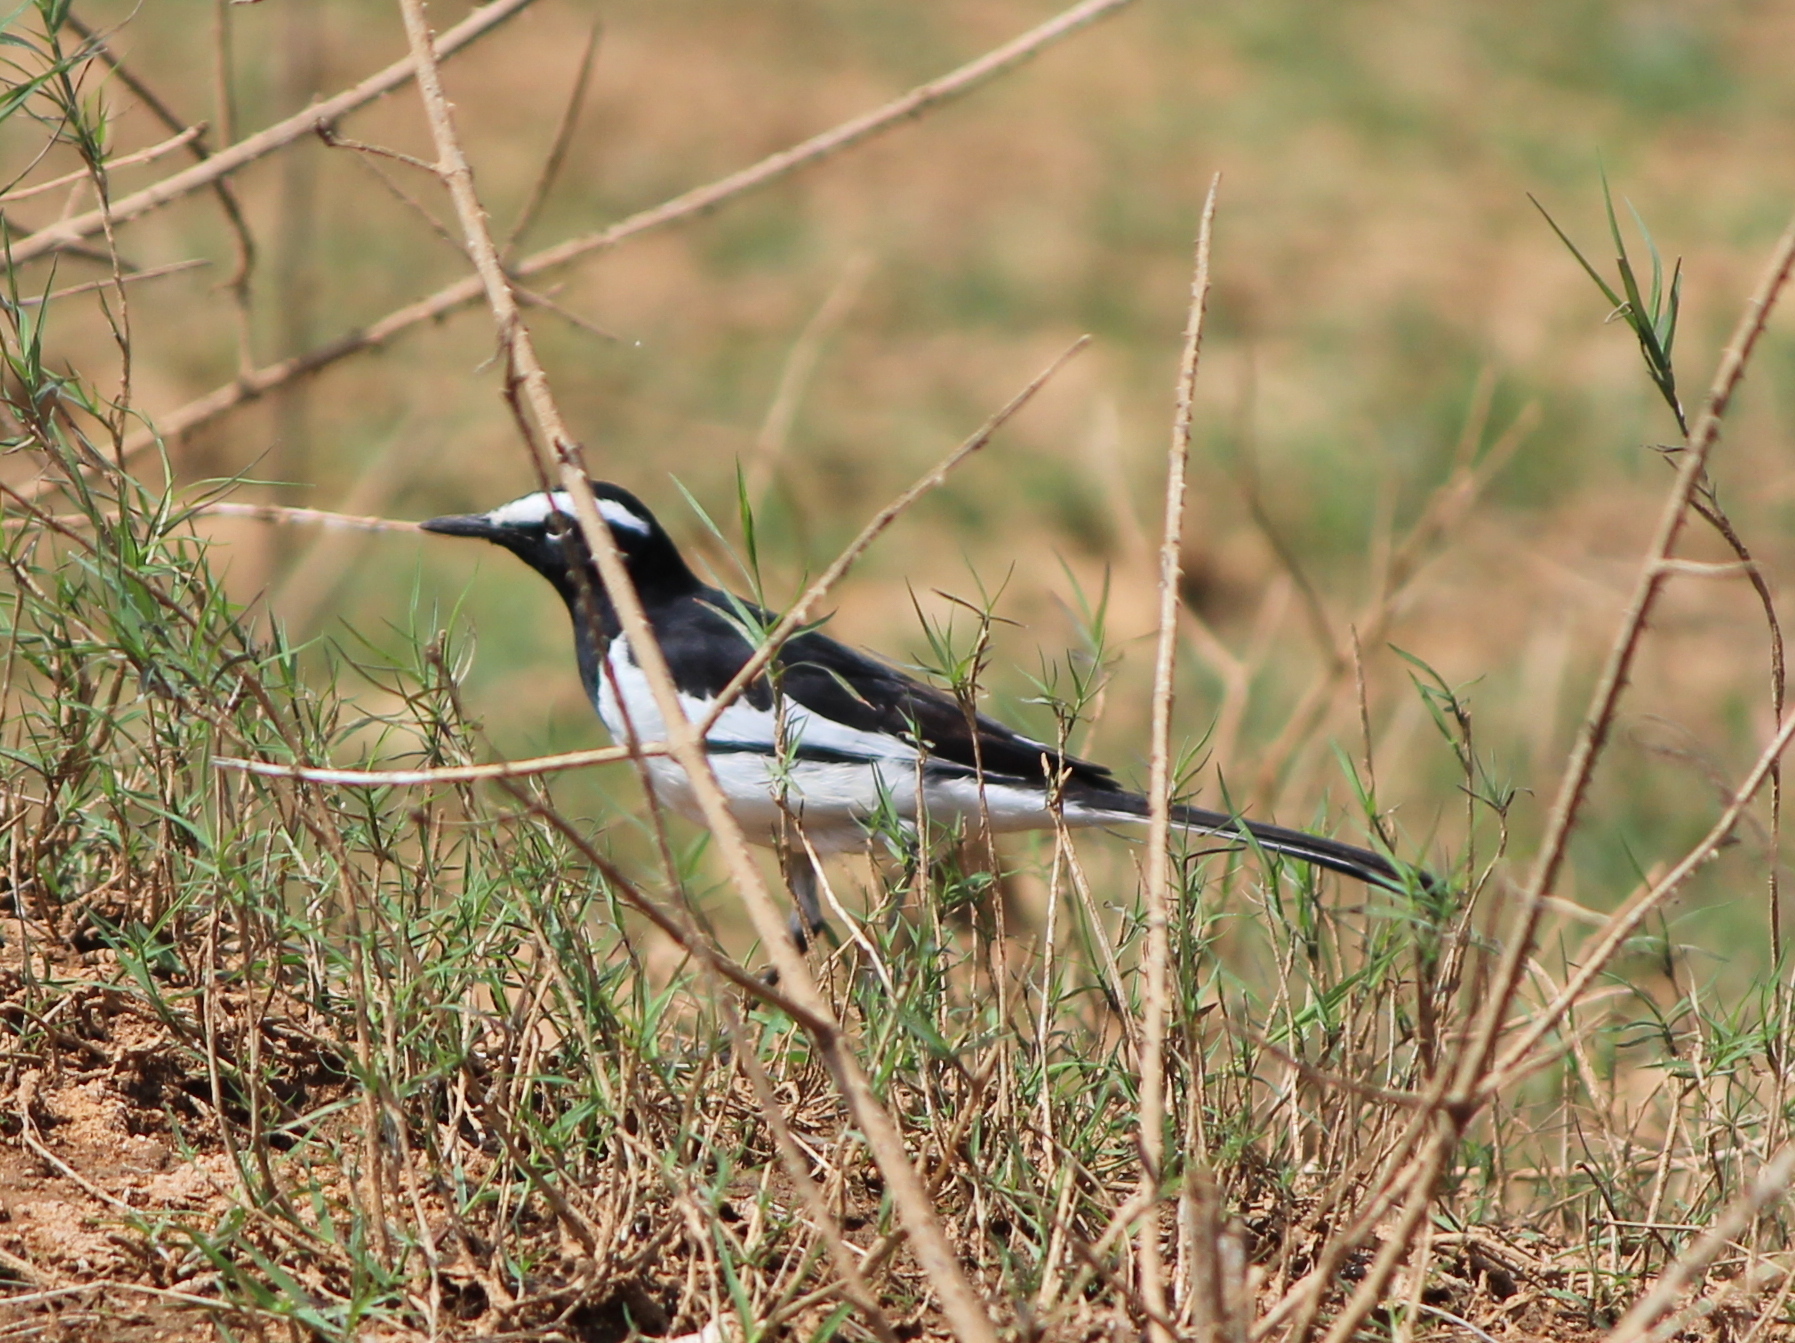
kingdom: Animalia
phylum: Chordata
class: Aves
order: Passeriformes
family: Motacillidae
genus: Motacilla
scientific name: Motacilla maderaspatensis
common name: White-browed wagtail
